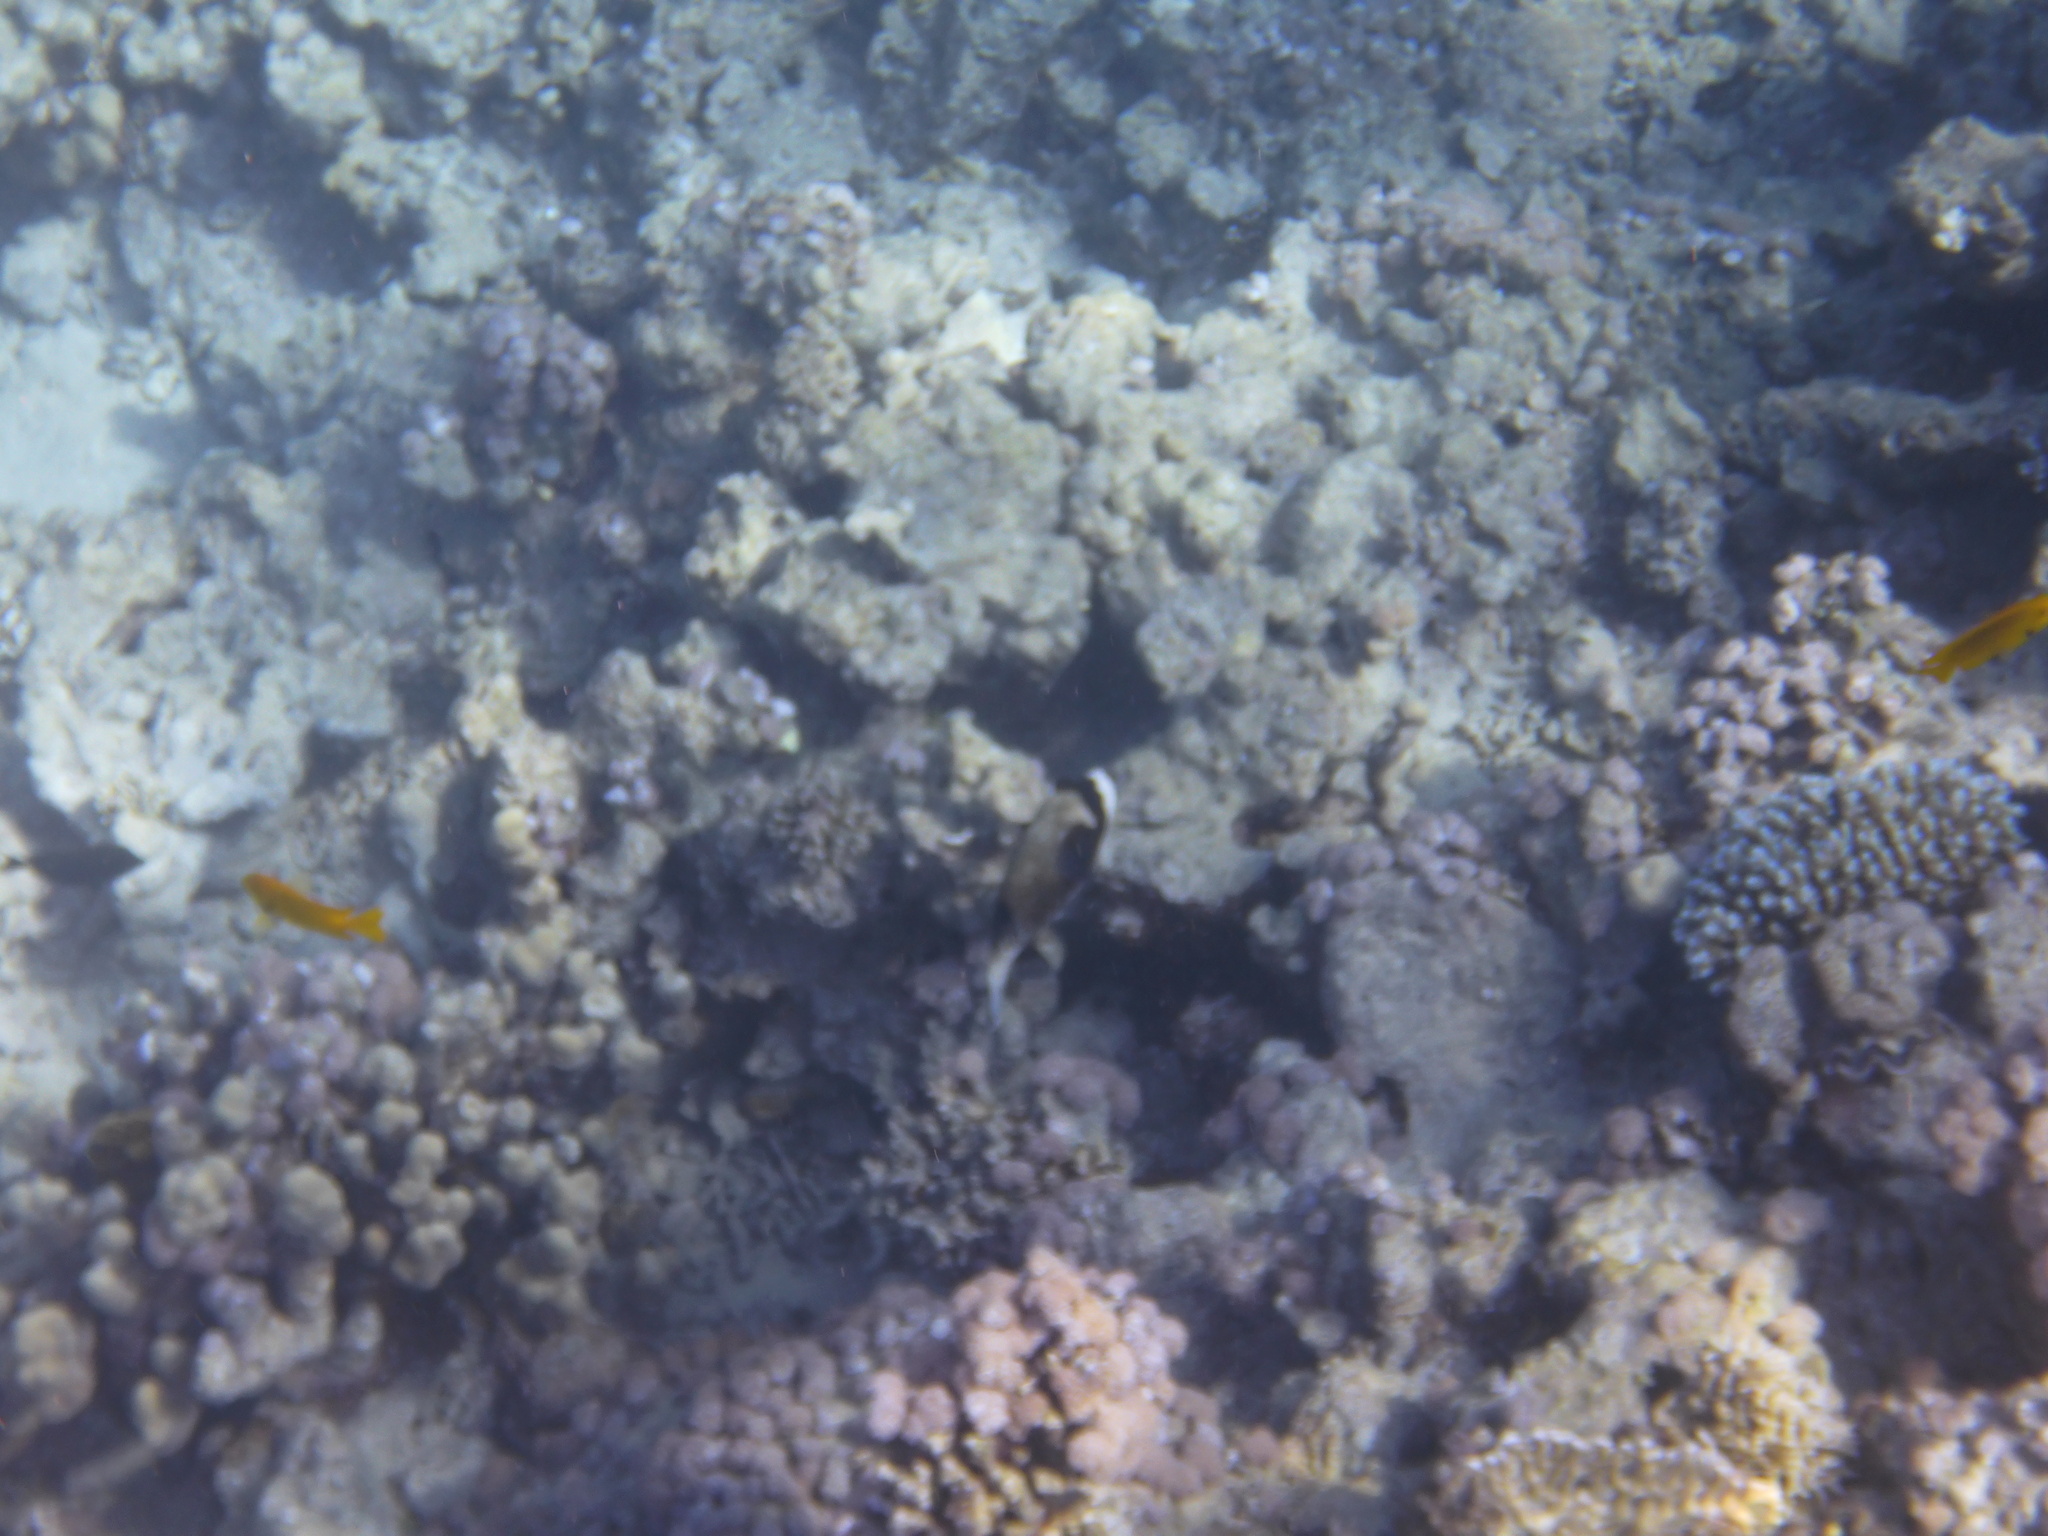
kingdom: Animalia
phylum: Chordata
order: Tetraodontiformes
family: Tetraodontidae
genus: Arothron
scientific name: Arothron diadematus
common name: Masked puffer
